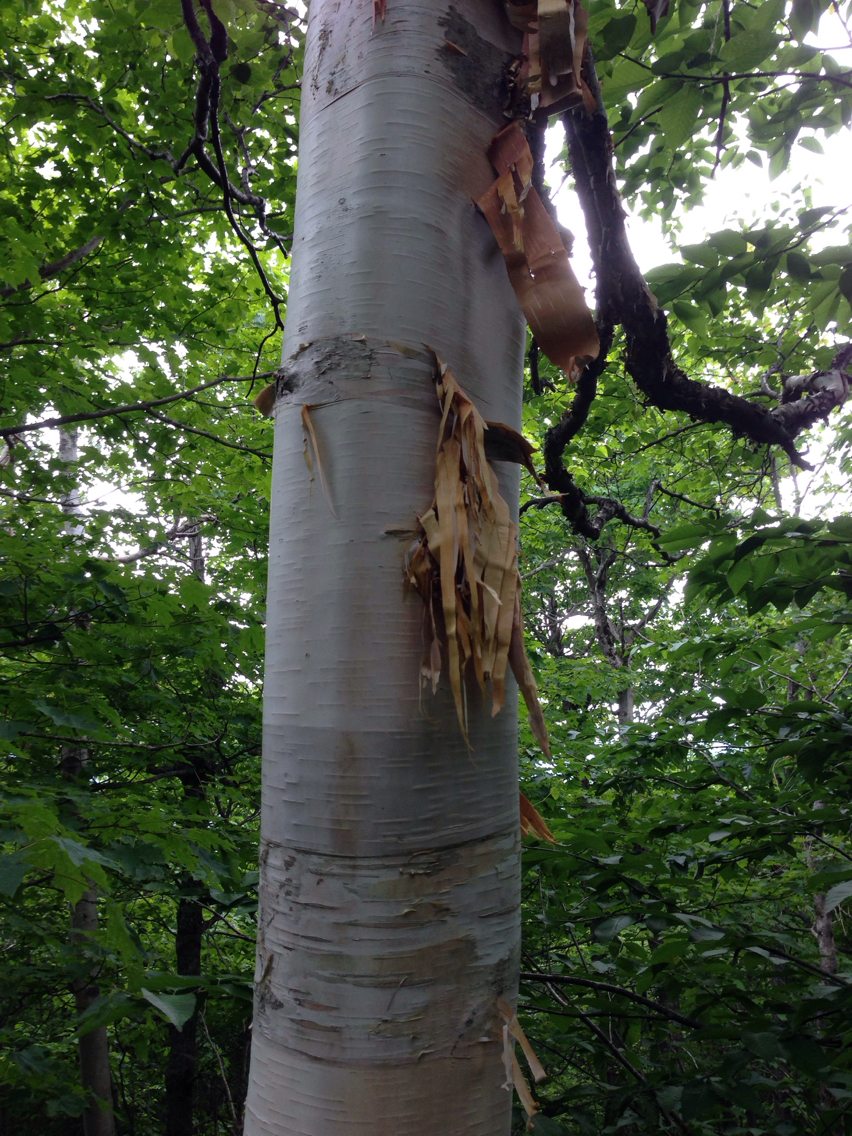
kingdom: Plantae
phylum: Tracheophyta
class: Magnoliopsida
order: Fagales
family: Betulaceae
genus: Betula
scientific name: Betula cordifolia
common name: Mountain white birch
